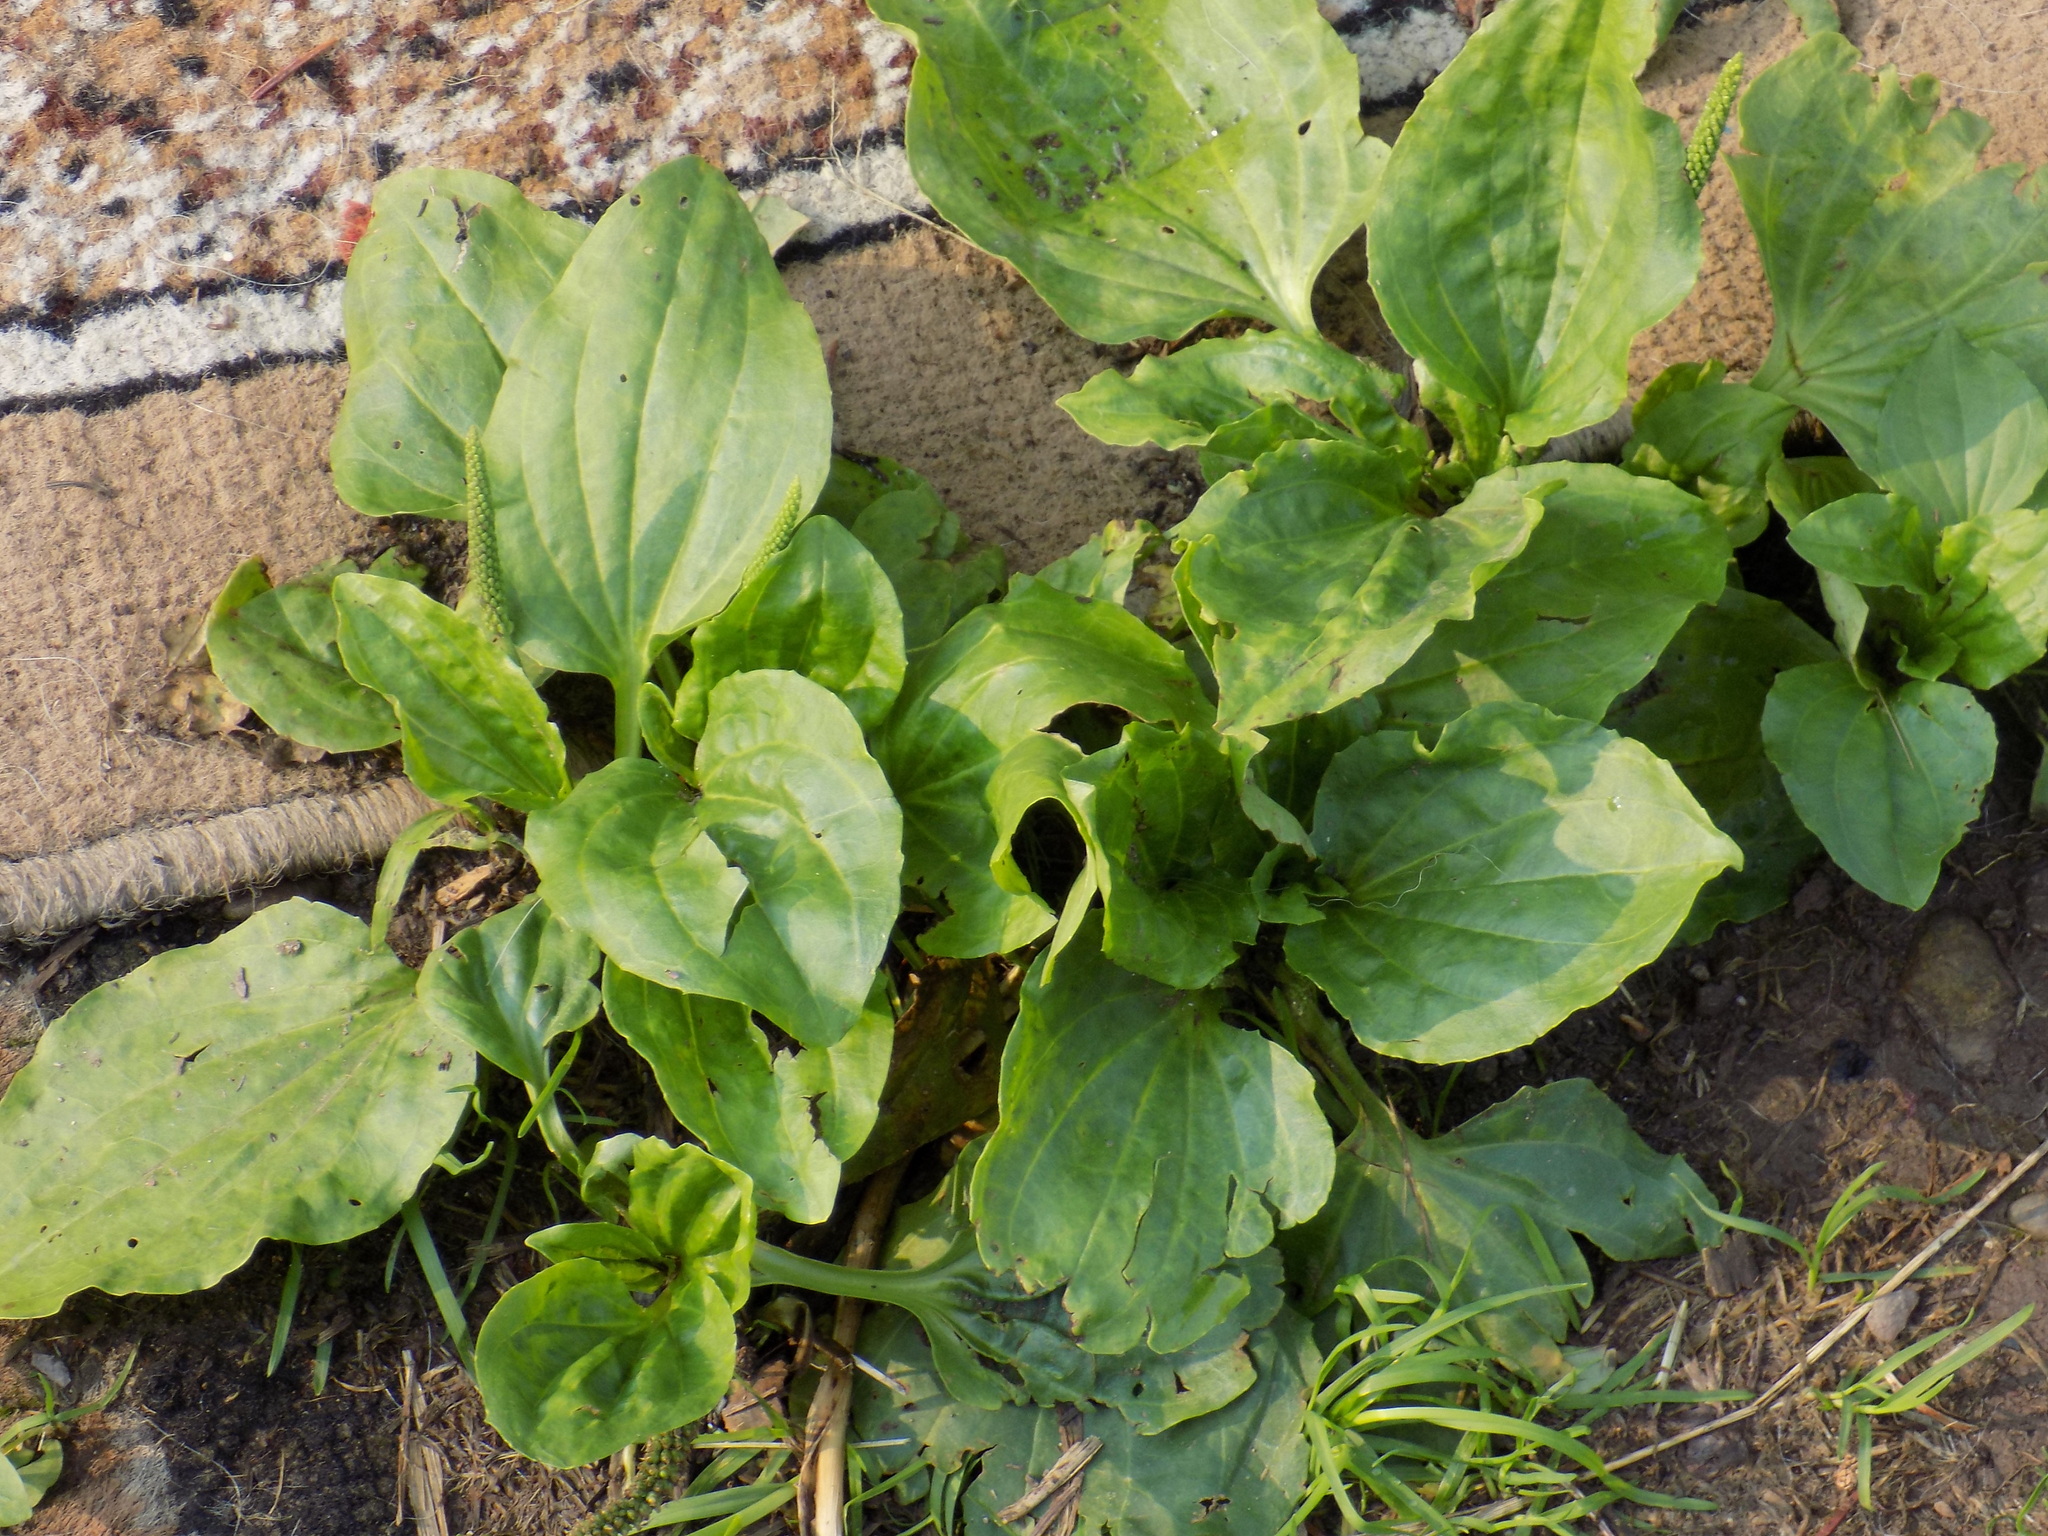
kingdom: Plantae
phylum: Tracheophyta
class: Magnoliopsida
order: Lamiales
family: Plantaginaceae
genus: Plantago
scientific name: Plantago major
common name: Common plantain
